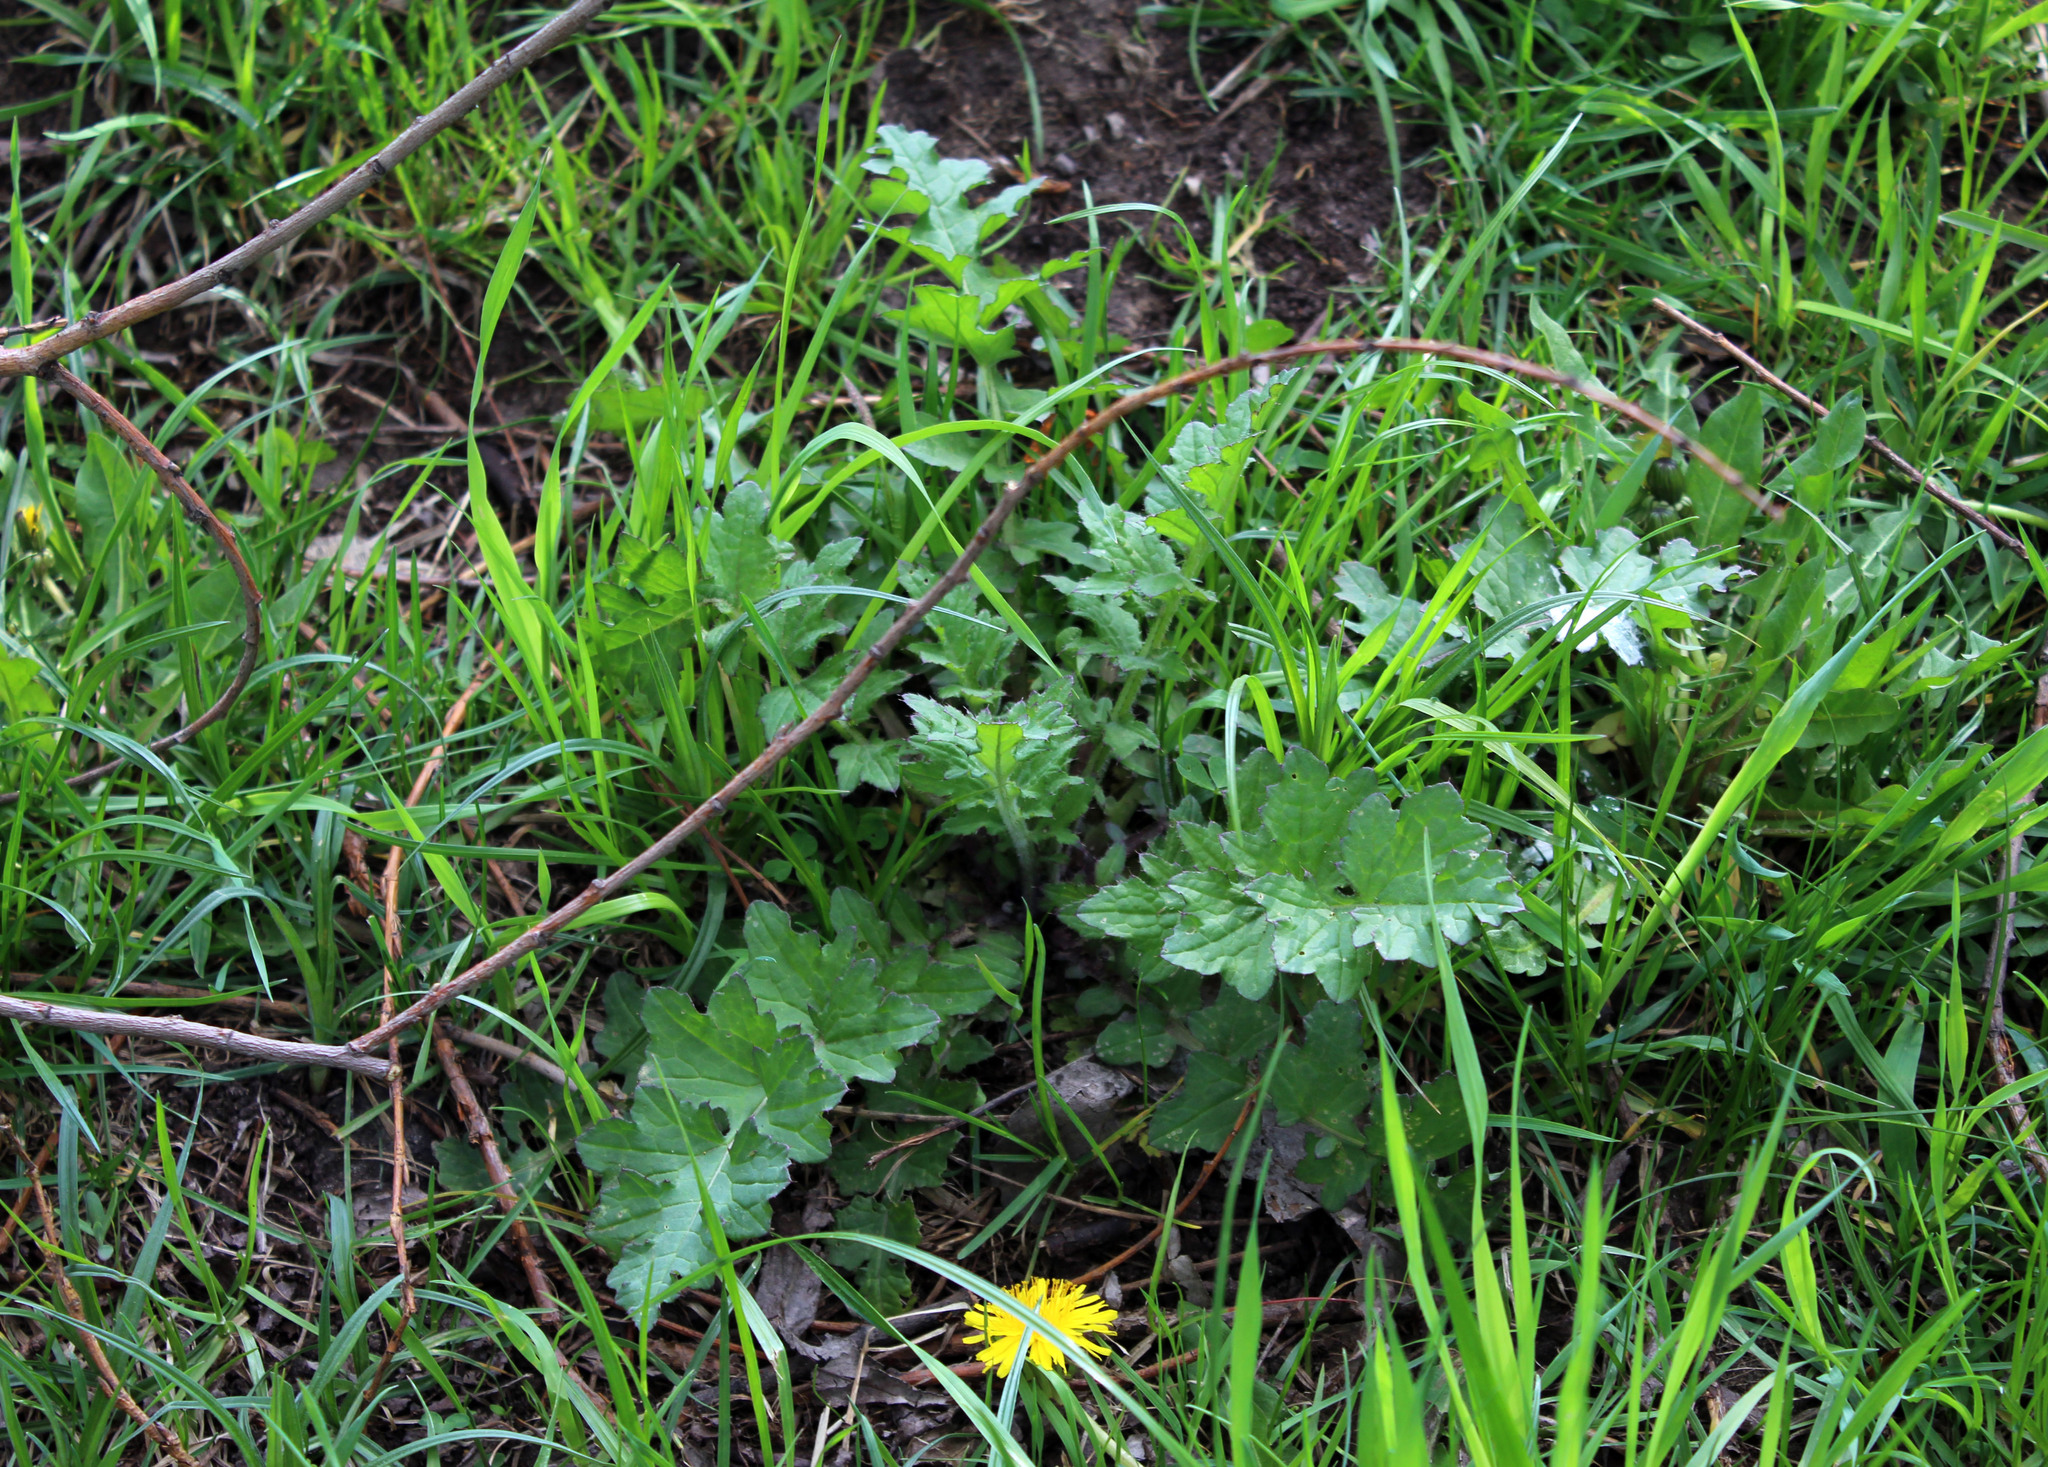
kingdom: Plantae
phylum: Tracheophyta
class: Magnoliopsida
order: Asterales
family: Asteraceae
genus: Carduus
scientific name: Carduus crispus
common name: Welted thistle
